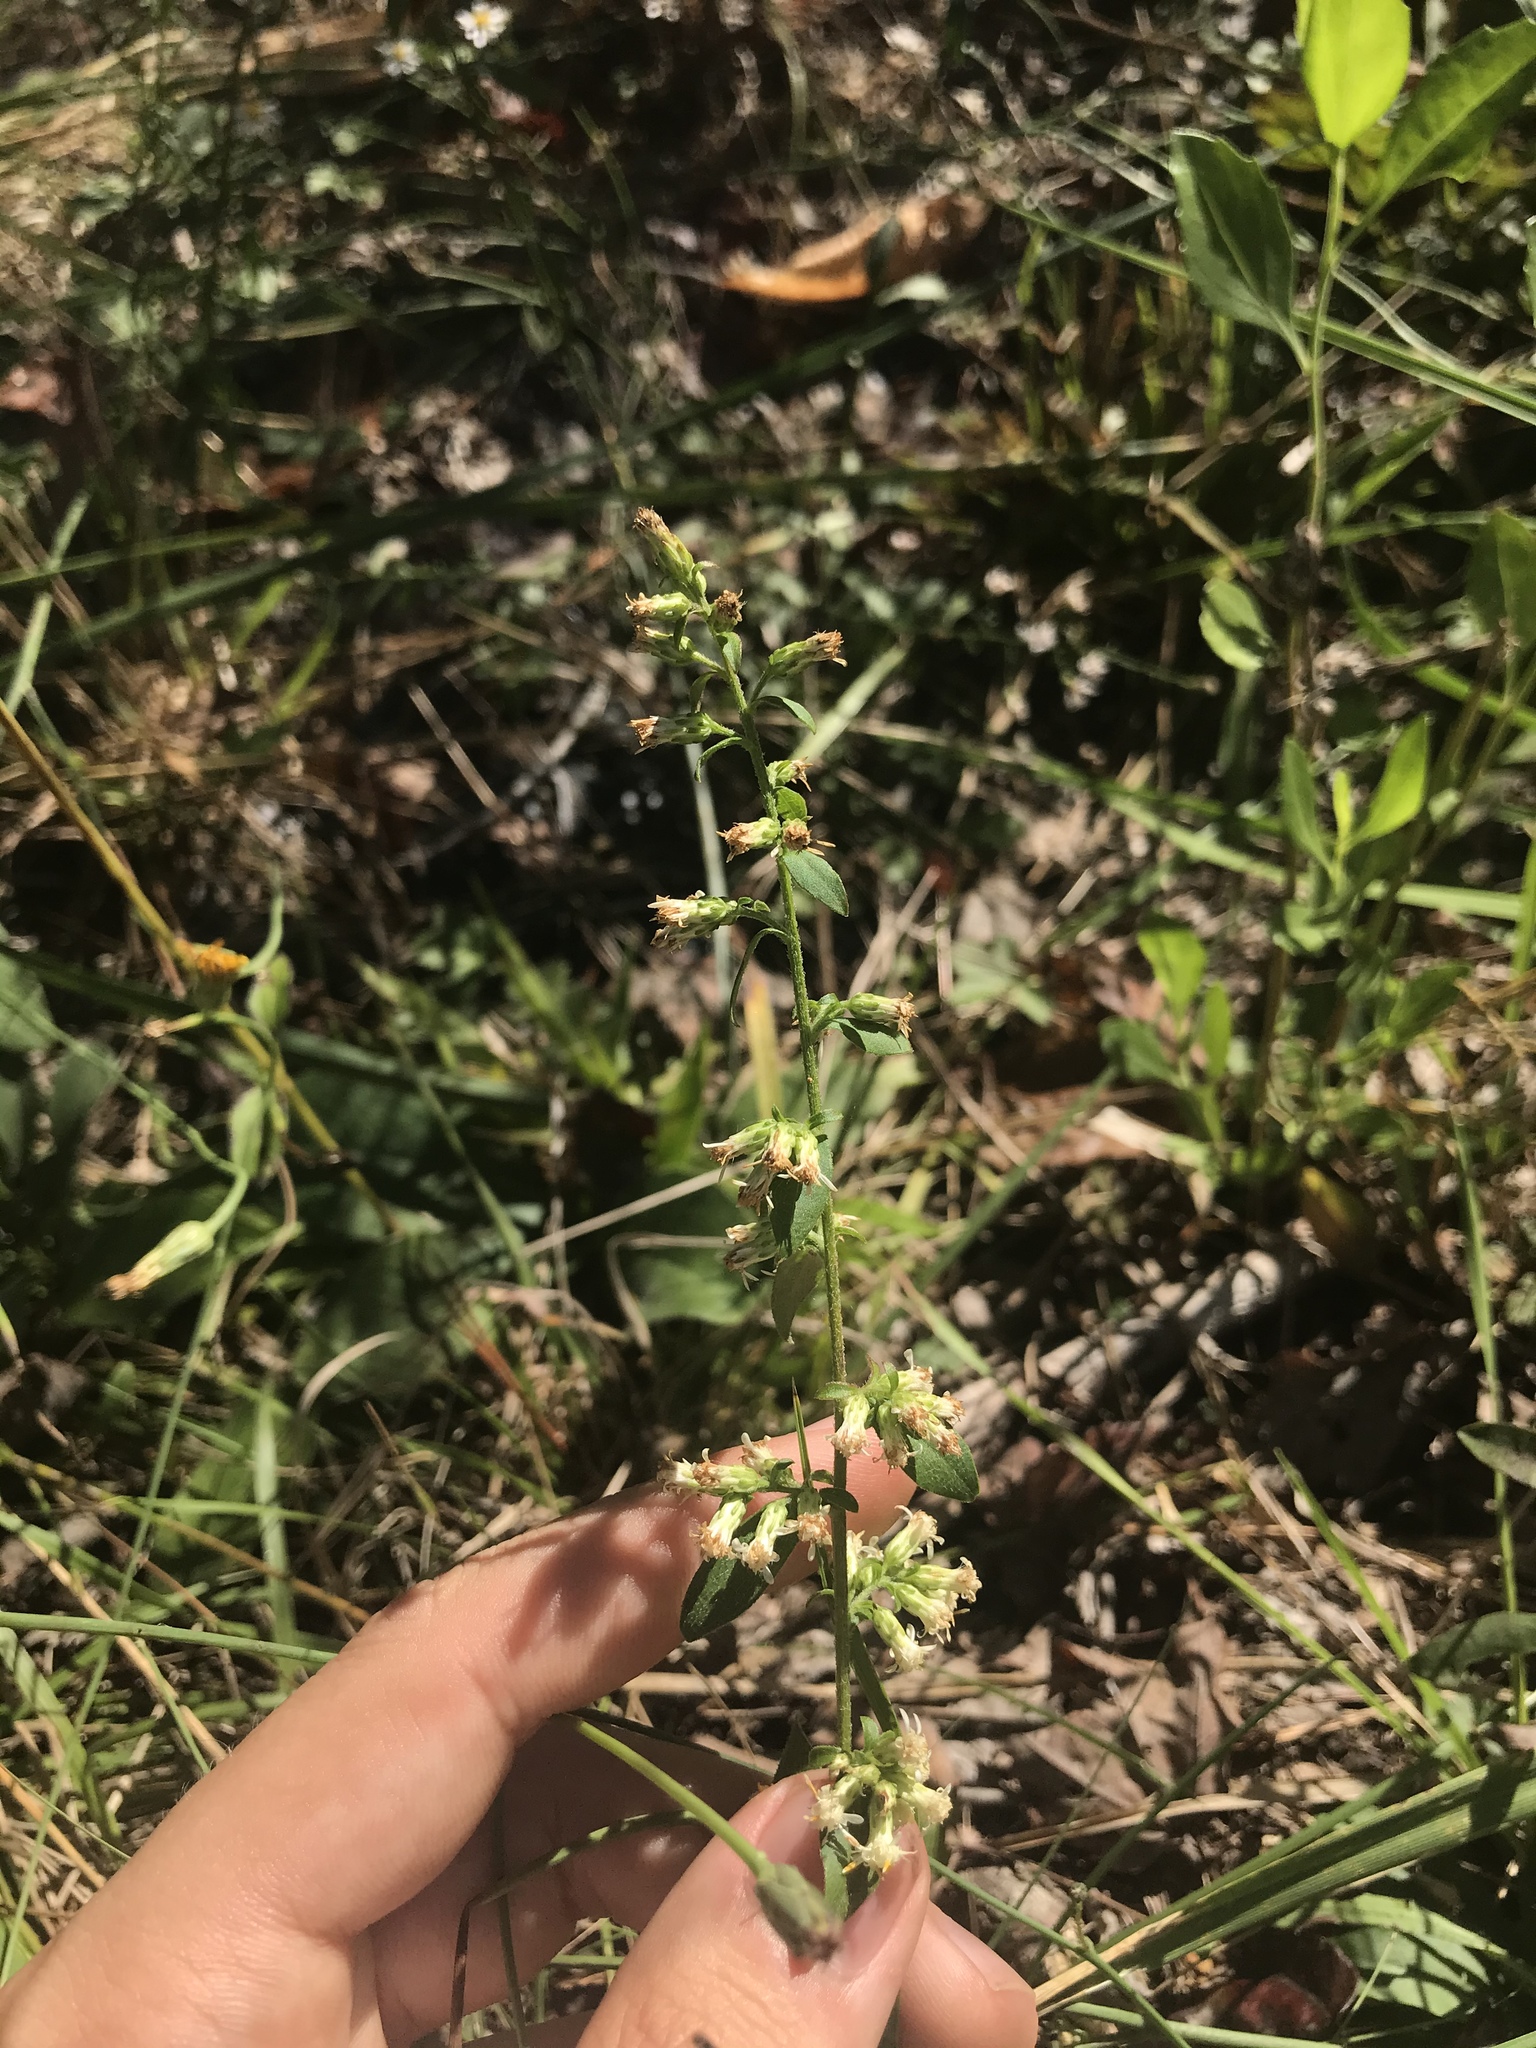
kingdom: Plantae
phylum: Tracheophyta
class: Magnoliopsida
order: Asterales
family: Asteraceae
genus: Solidago
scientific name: Solidago bicolor
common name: Silverrod
